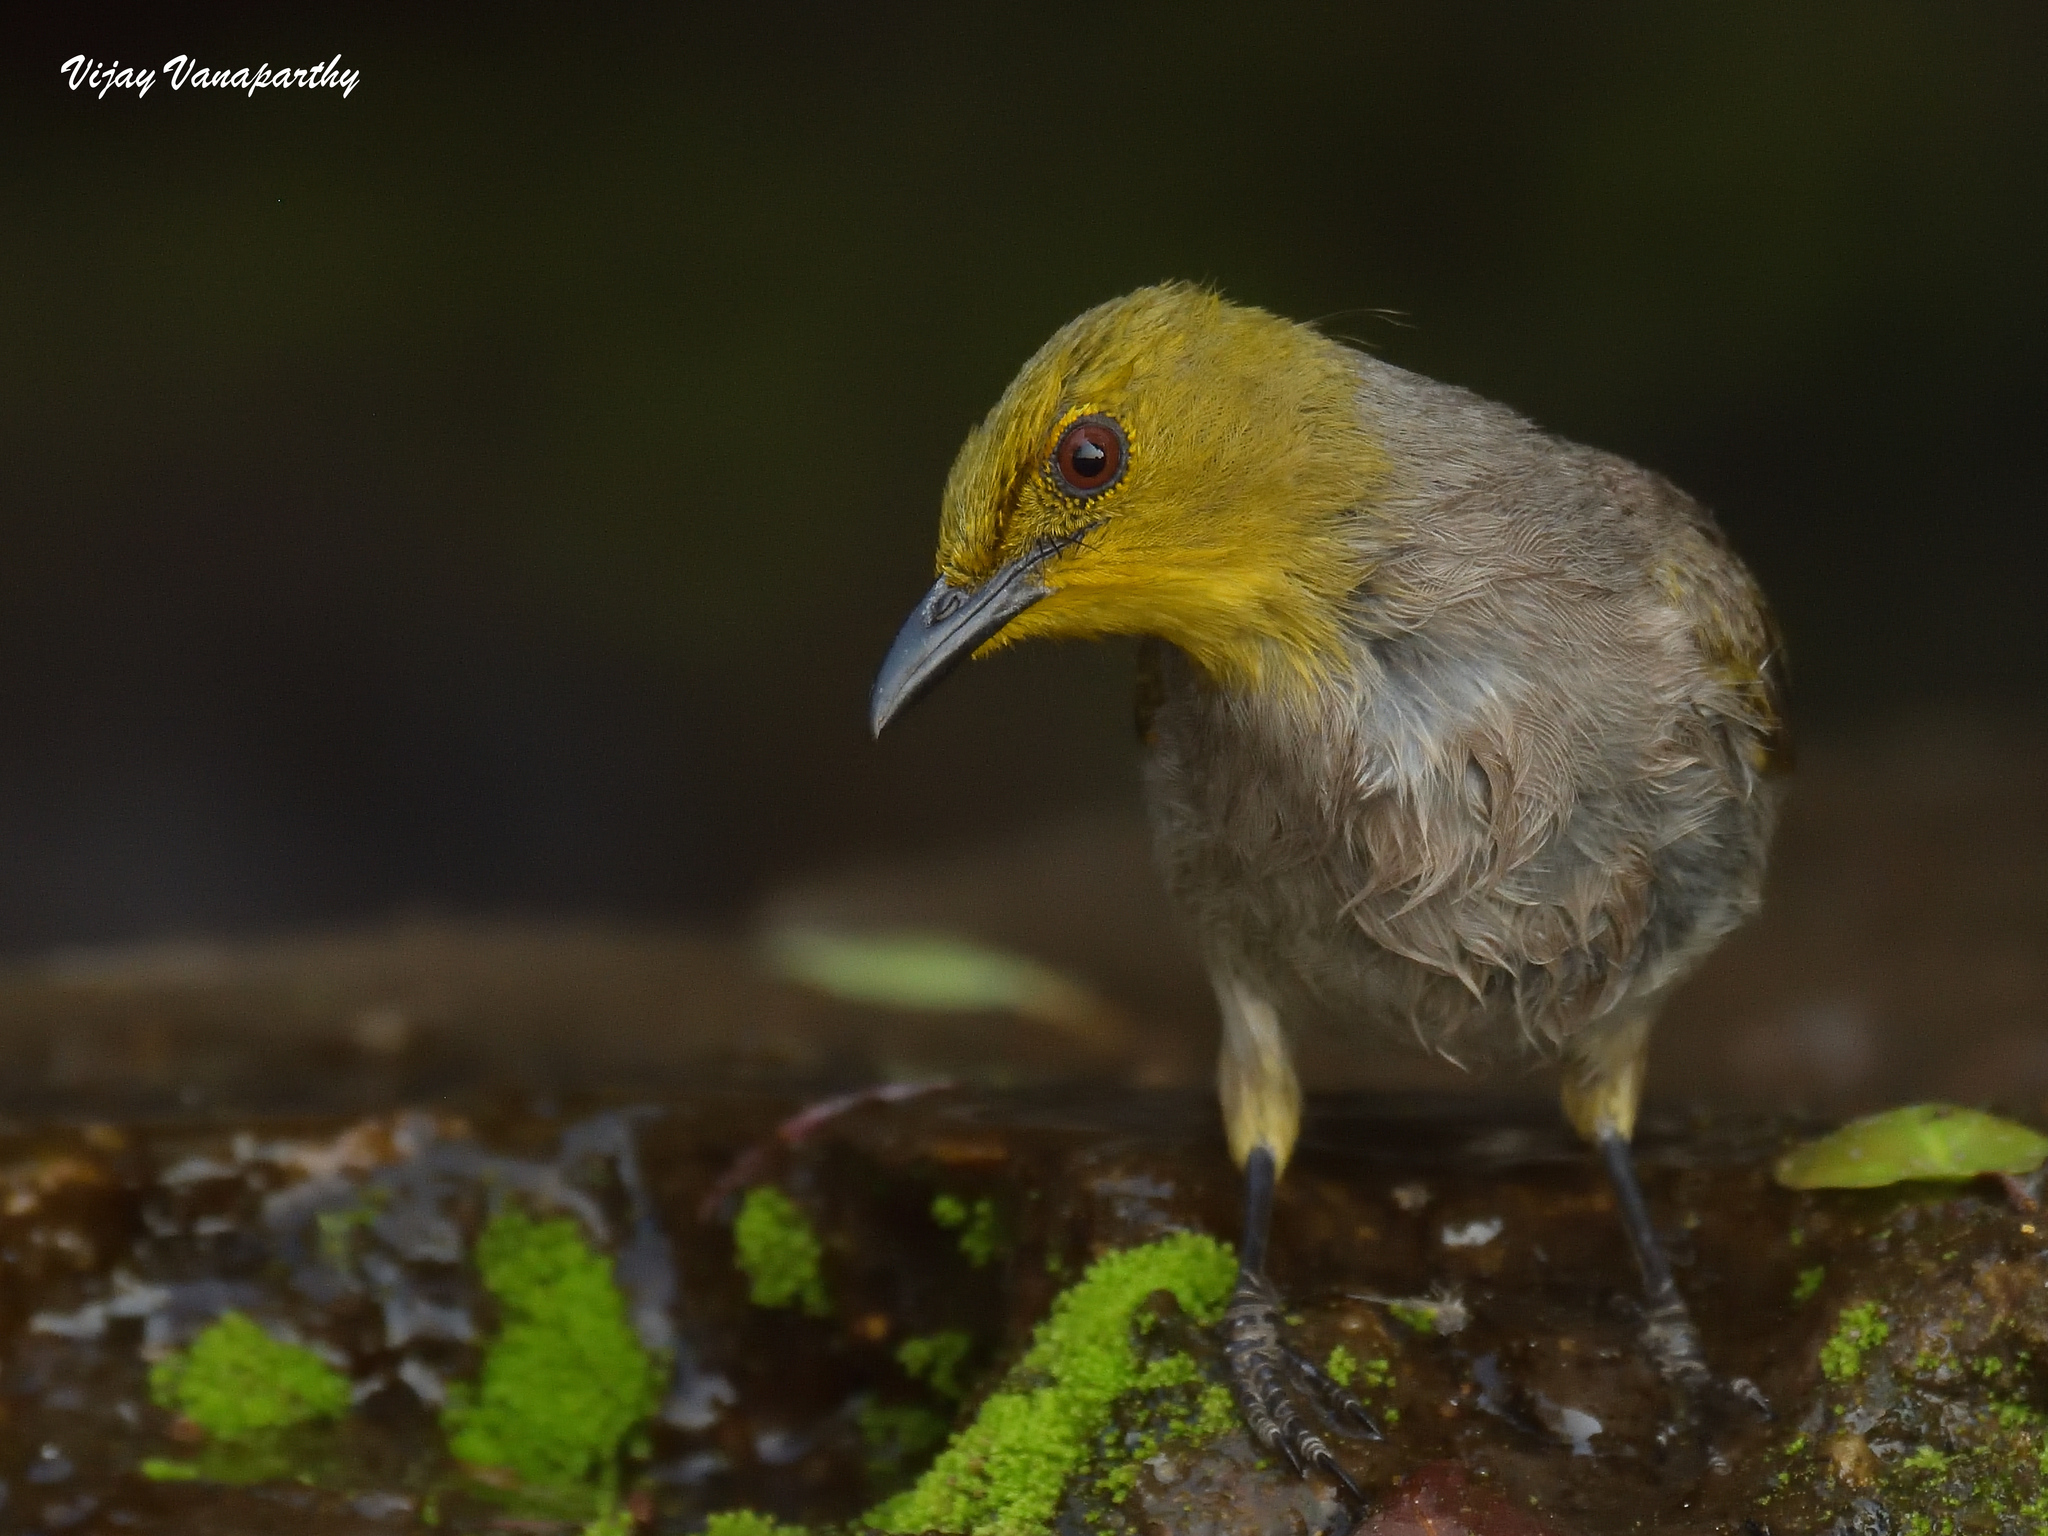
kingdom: Animalia
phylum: Chordata
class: Aves
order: Passeriformes
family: Pycnonotidae
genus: Pycnonotus
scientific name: Pycnonotus xantholaemus
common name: Yellow-throated bulbul
